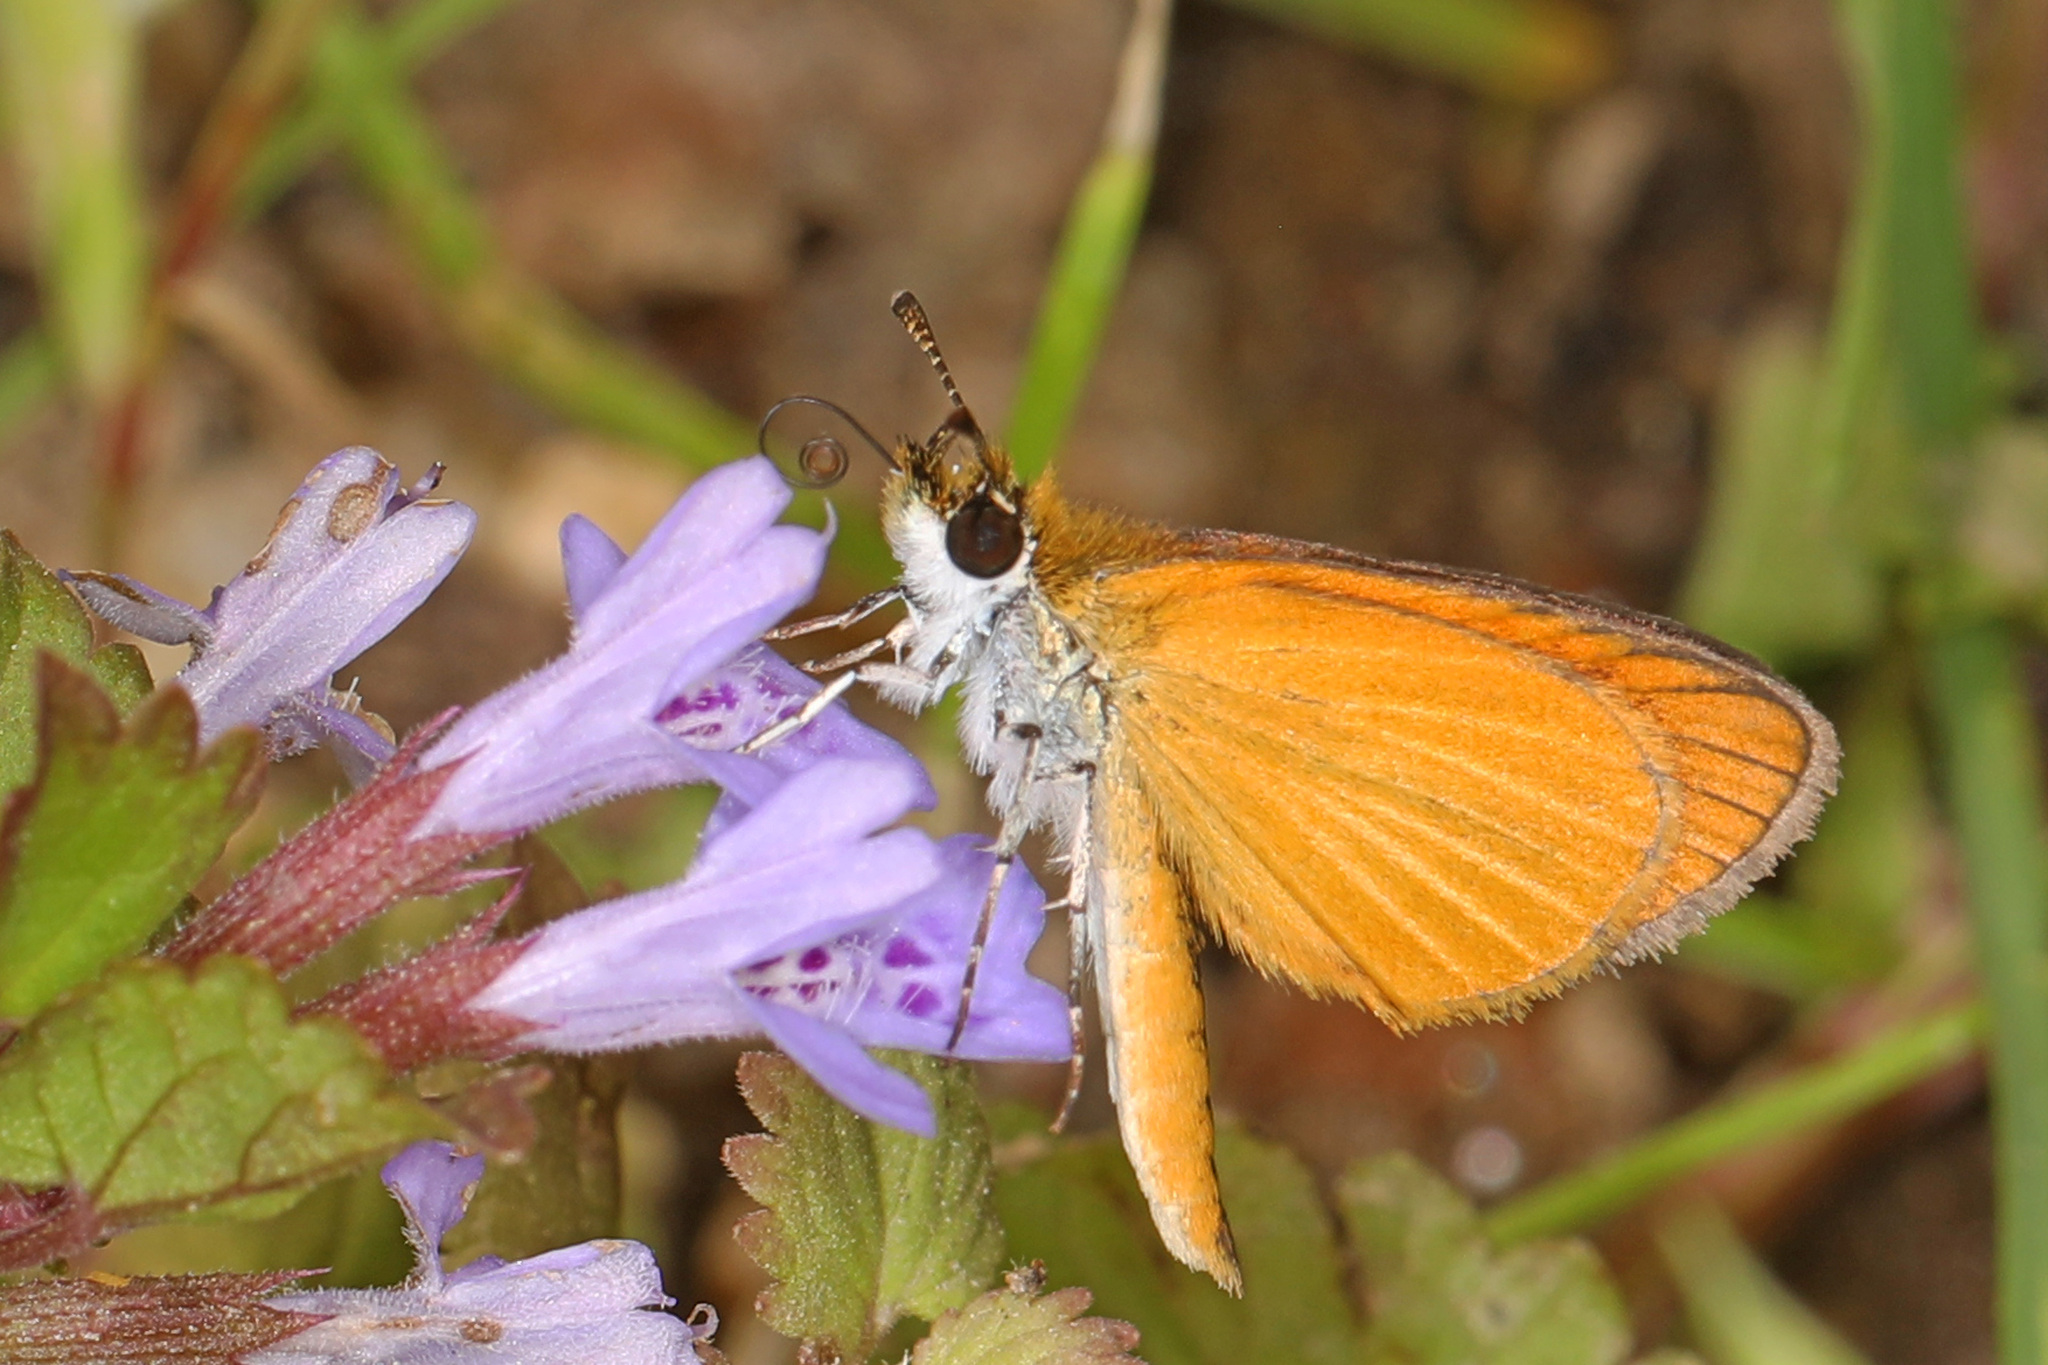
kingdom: Animalia
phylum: Arthropoda
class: Insecta
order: Lepidoptera
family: Hesperiidae
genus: Ancyloxypha
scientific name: Ancyloxypha numitor
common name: Least skipper
